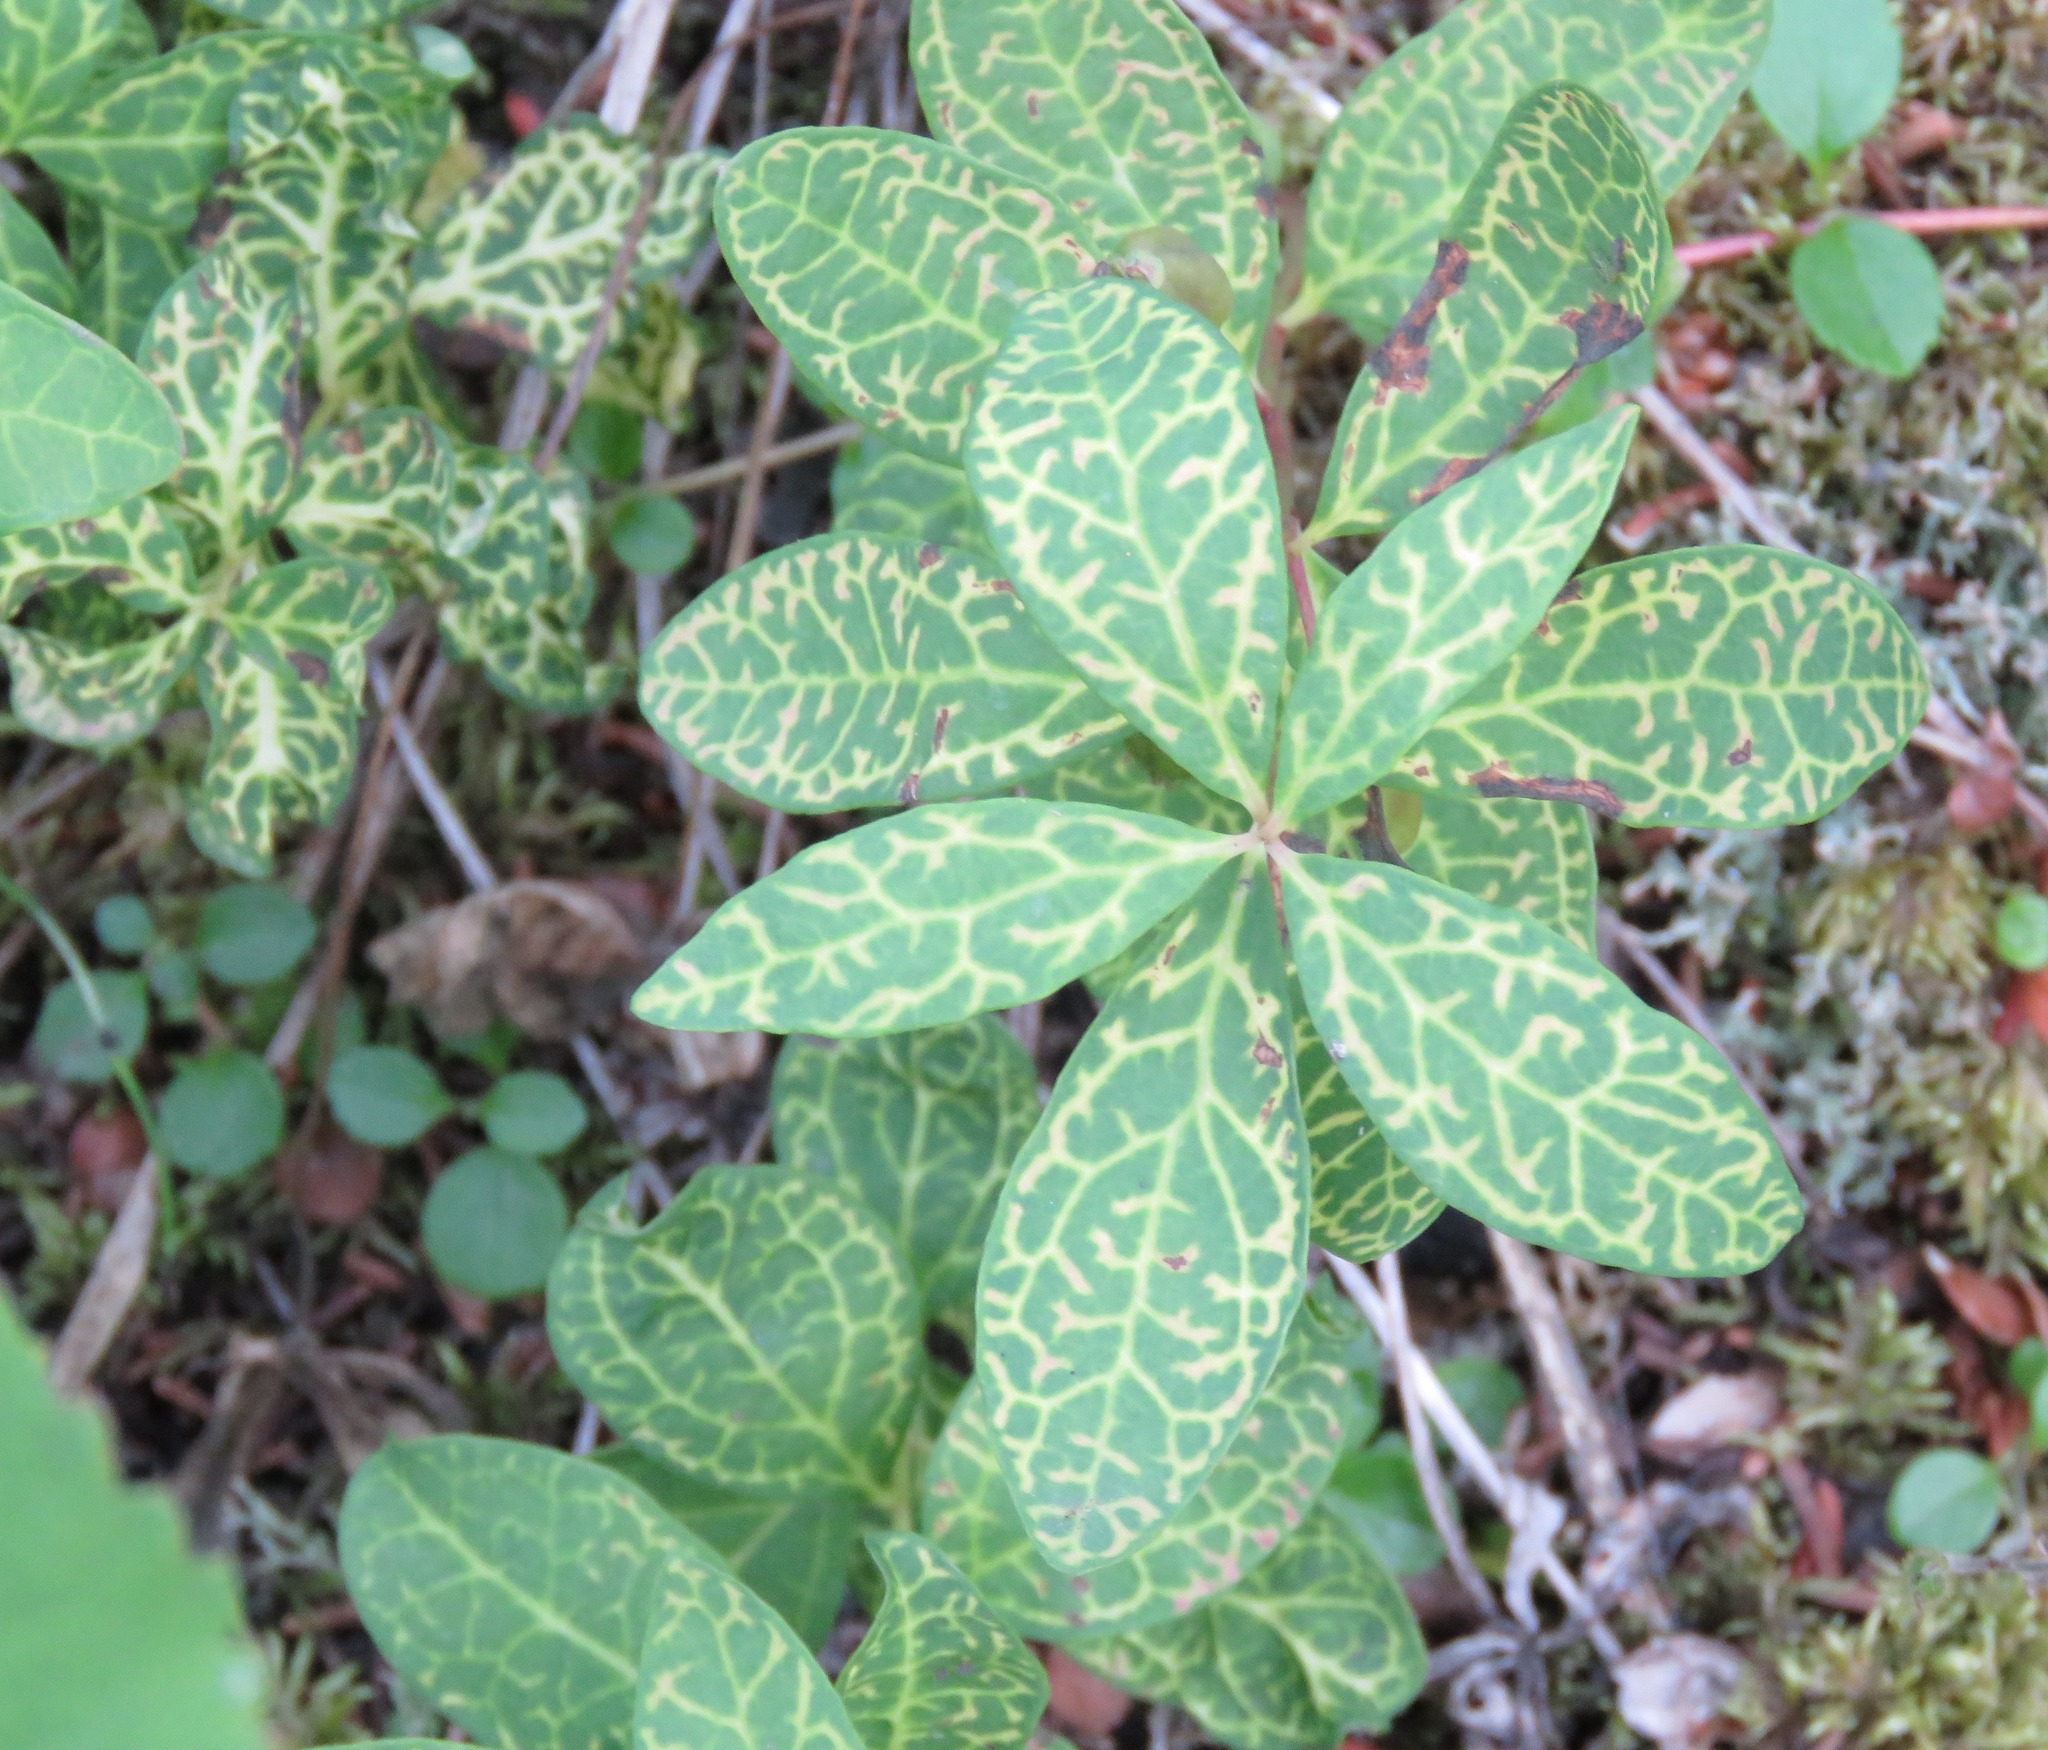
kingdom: Plantae
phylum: Tracheophyta
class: Magnoliopsida
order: Santalales
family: Comandraceae
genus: Geocaulon
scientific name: Geocaulon lividum
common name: Earthberry
